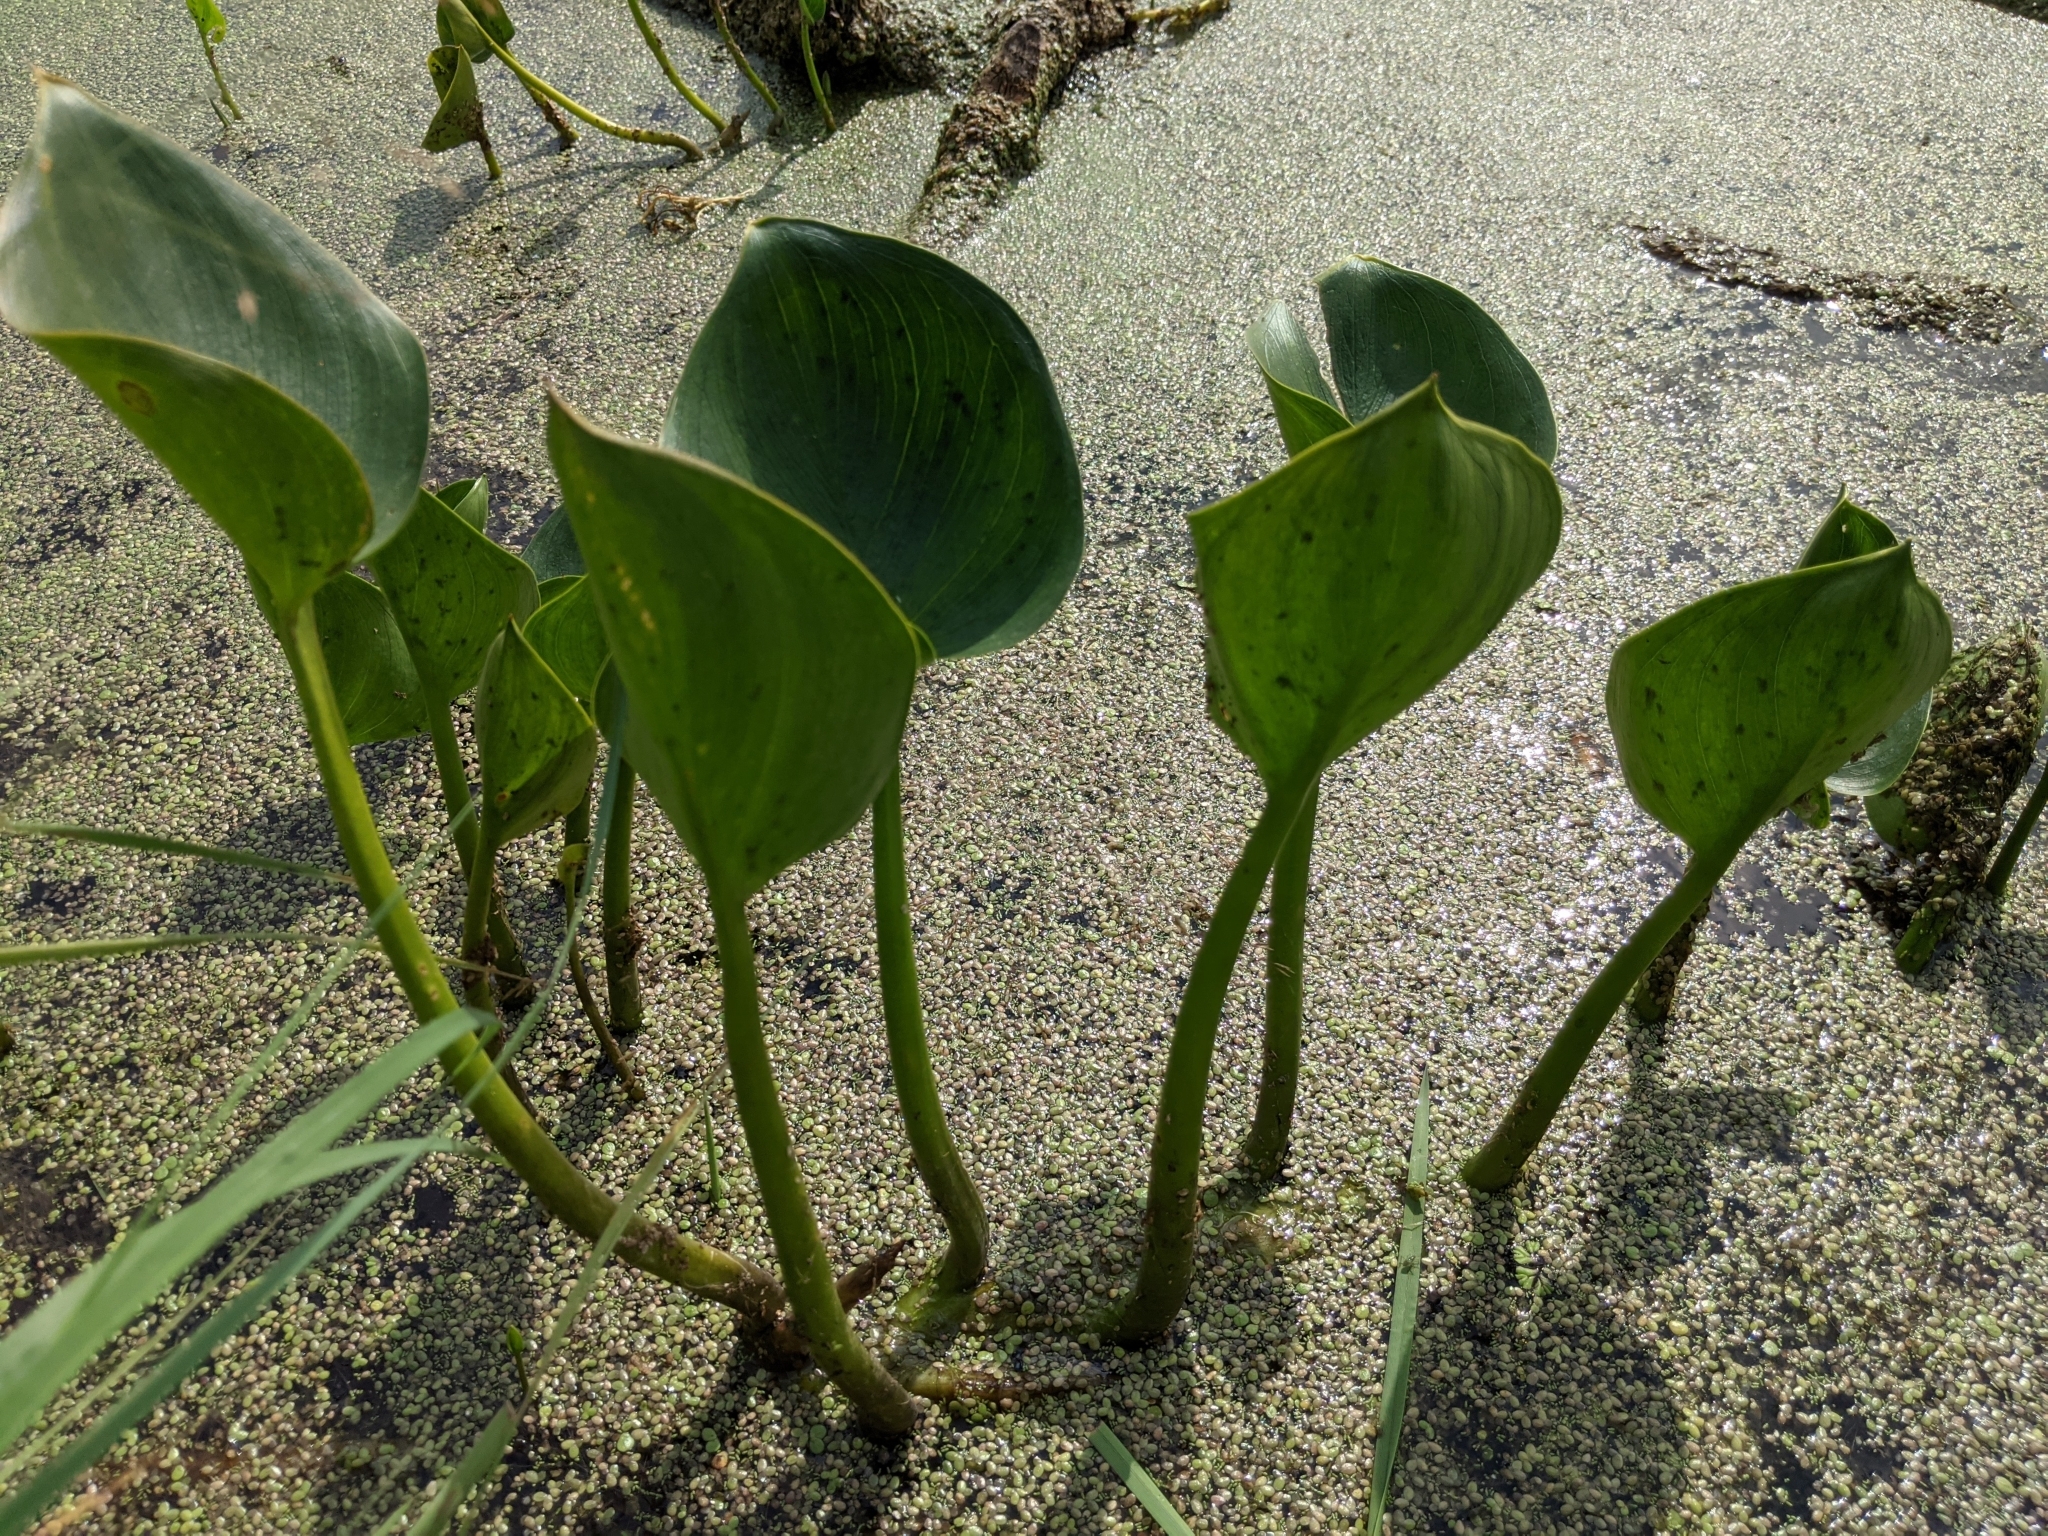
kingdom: Plantae
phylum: Tracheophyta
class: Liliopsida
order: Alismatales
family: Araceae
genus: Calla
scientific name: Calla palustris
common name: Bog arum
